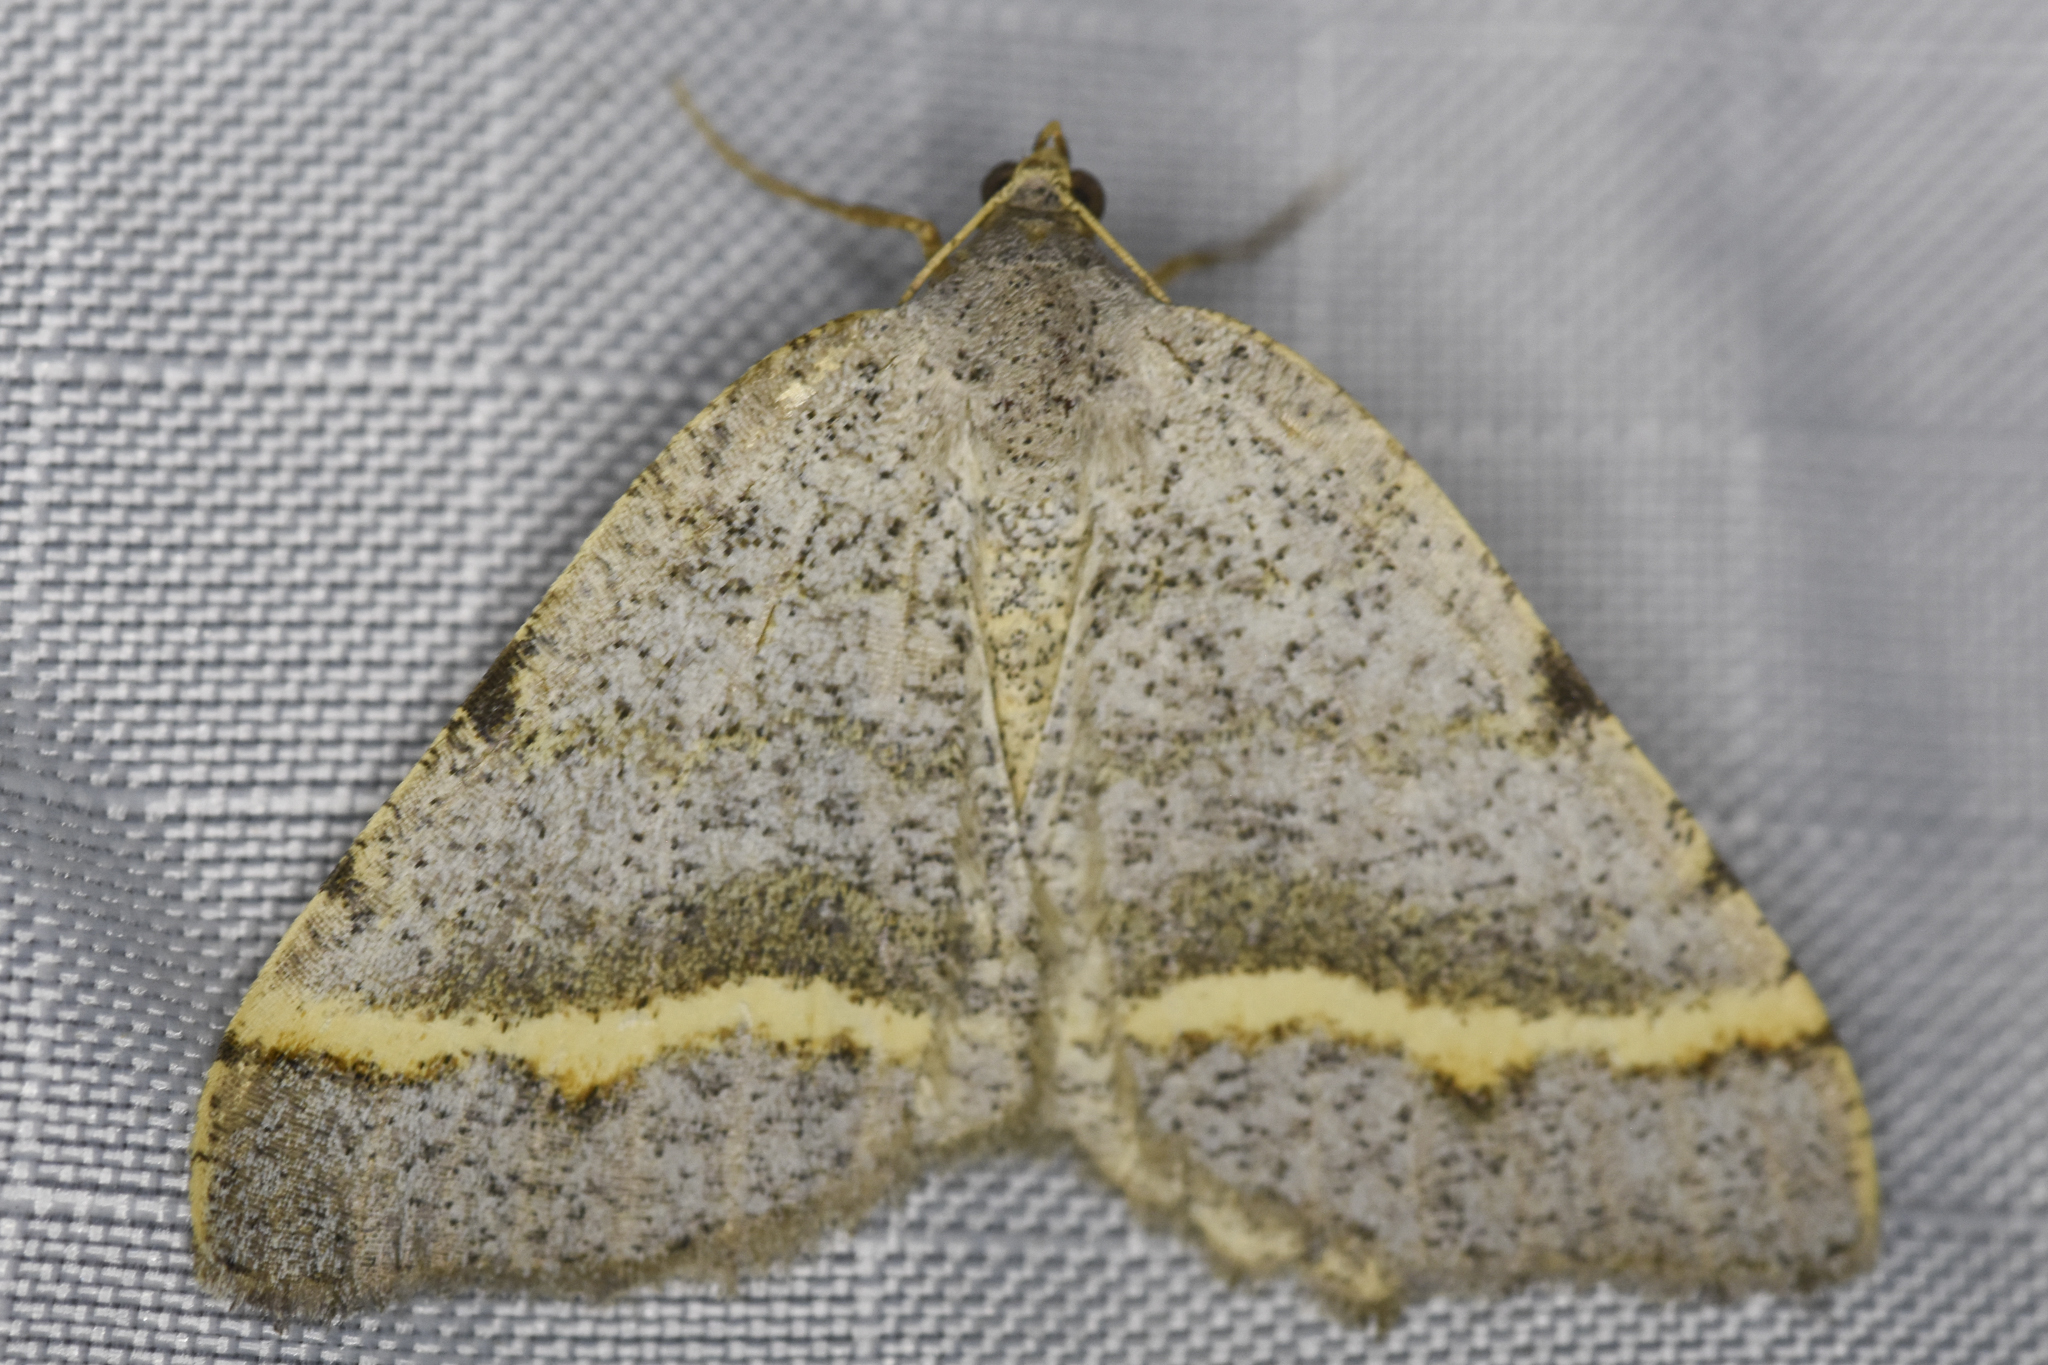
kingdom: Animalia
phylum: Arthropoda
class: Insecta
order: Lepidoptera
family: Geometridae
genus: Macaria
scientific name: Macaria austrinata
